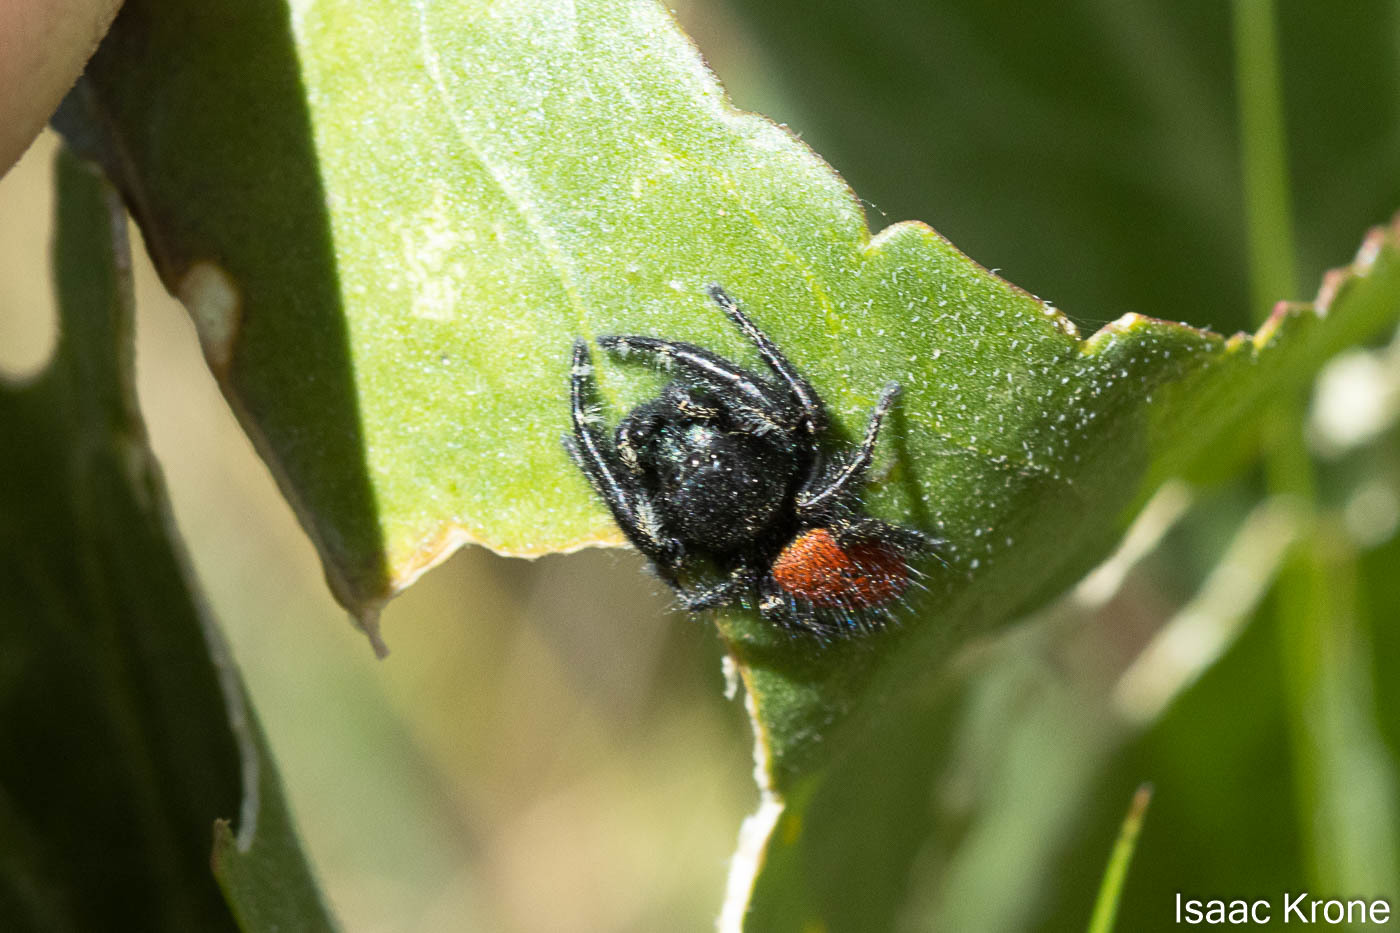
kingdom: Animalia
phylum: Arthropoda
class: Arachnida
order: Araneae
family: Salticidae
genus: Phidippus
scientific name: Phidippus johnsoni
